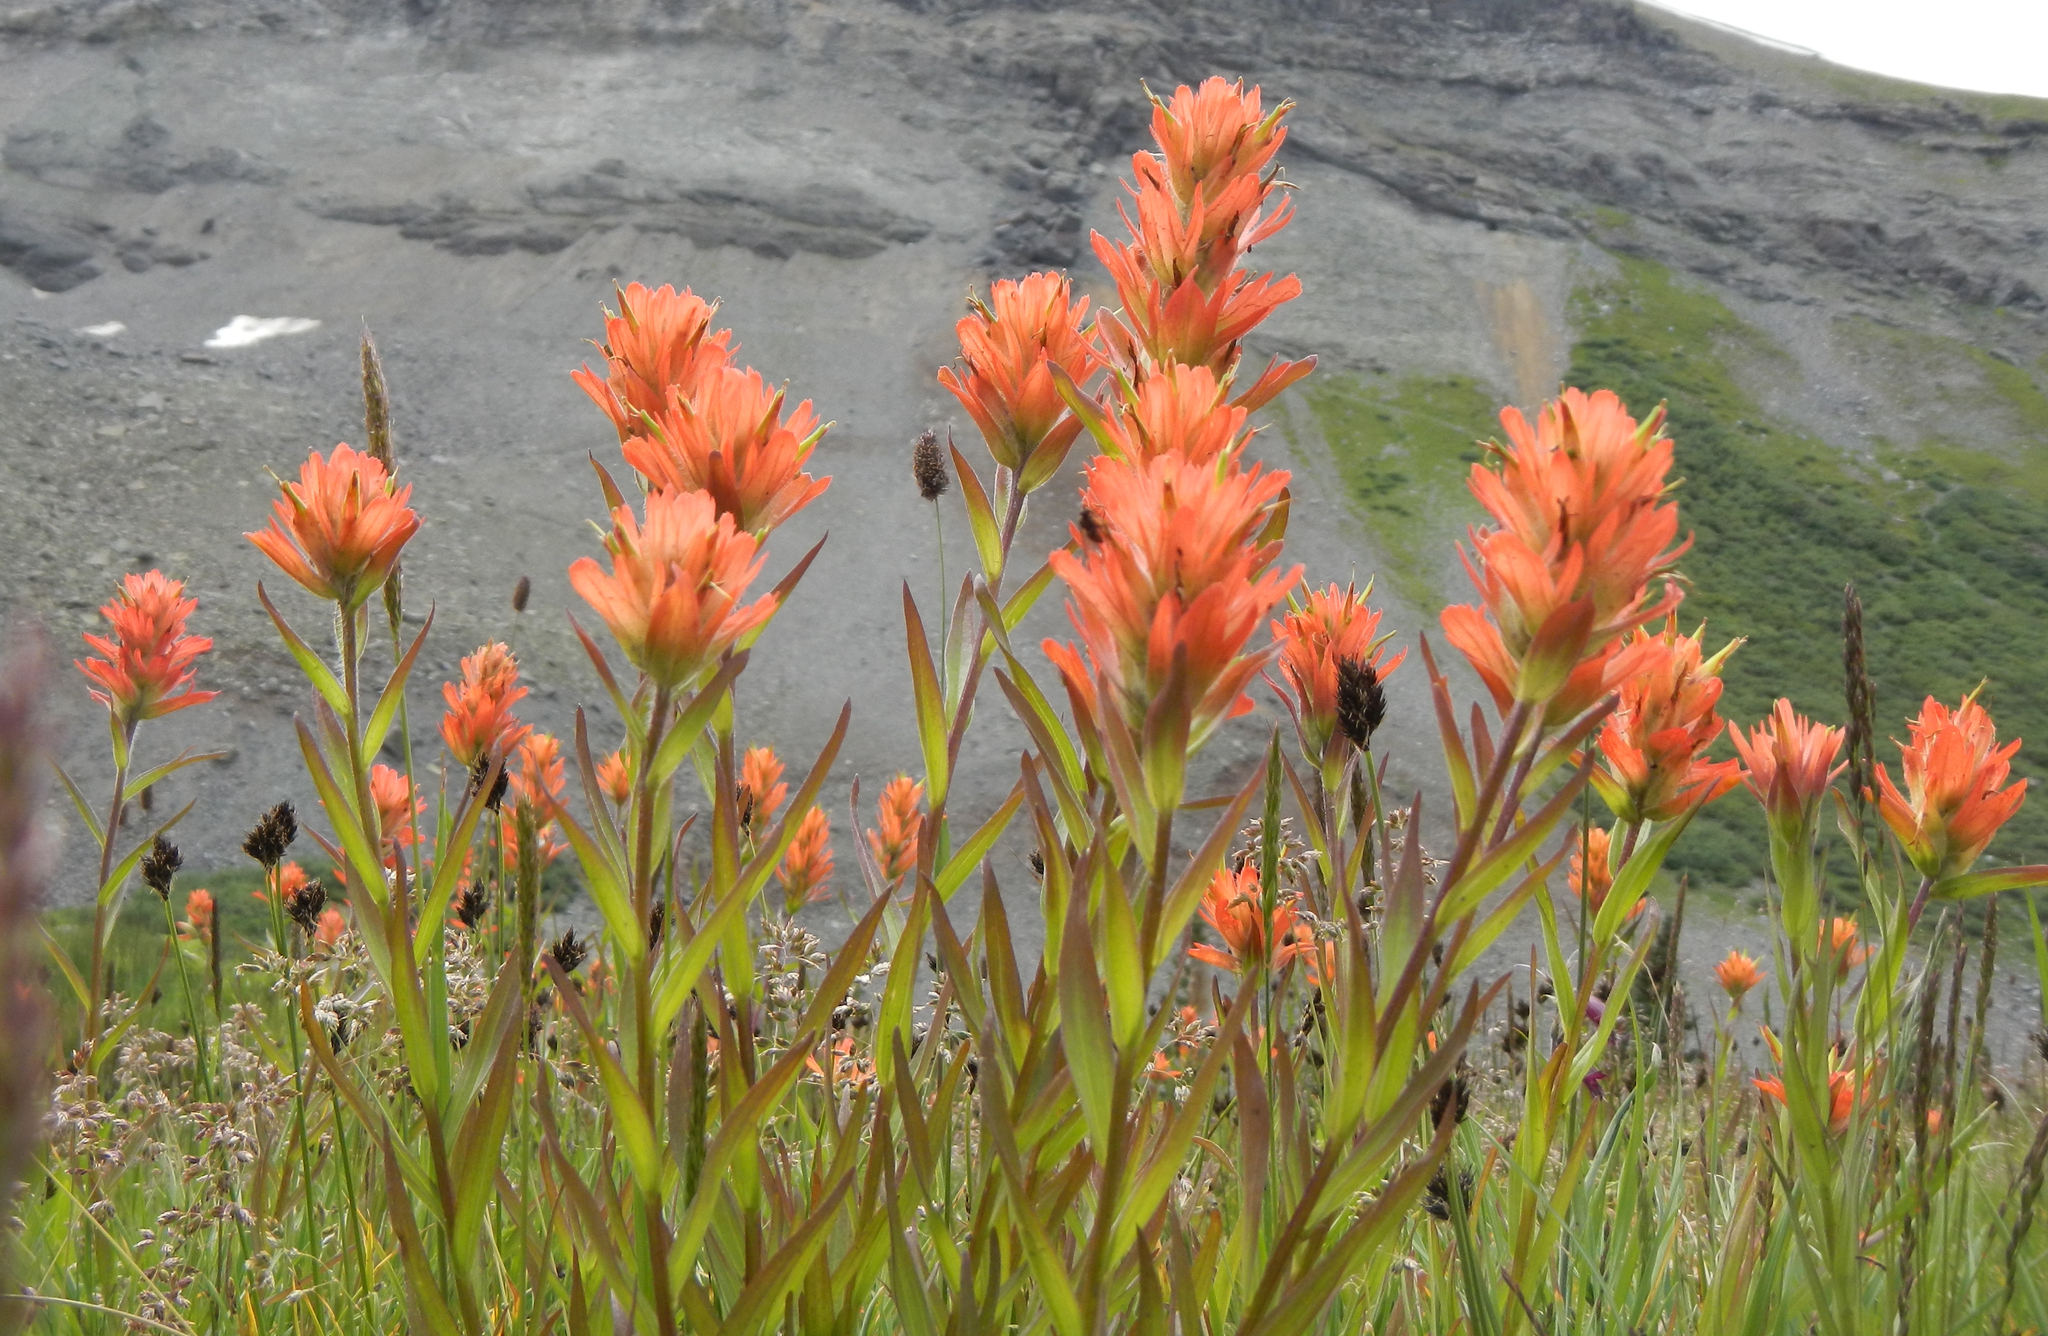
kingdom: Plantae
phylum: Tracheophyta
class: Magnoliopsida
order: Lamiales
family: Orobanchaceae
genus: Castilleja
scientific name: Castilleja miniata
